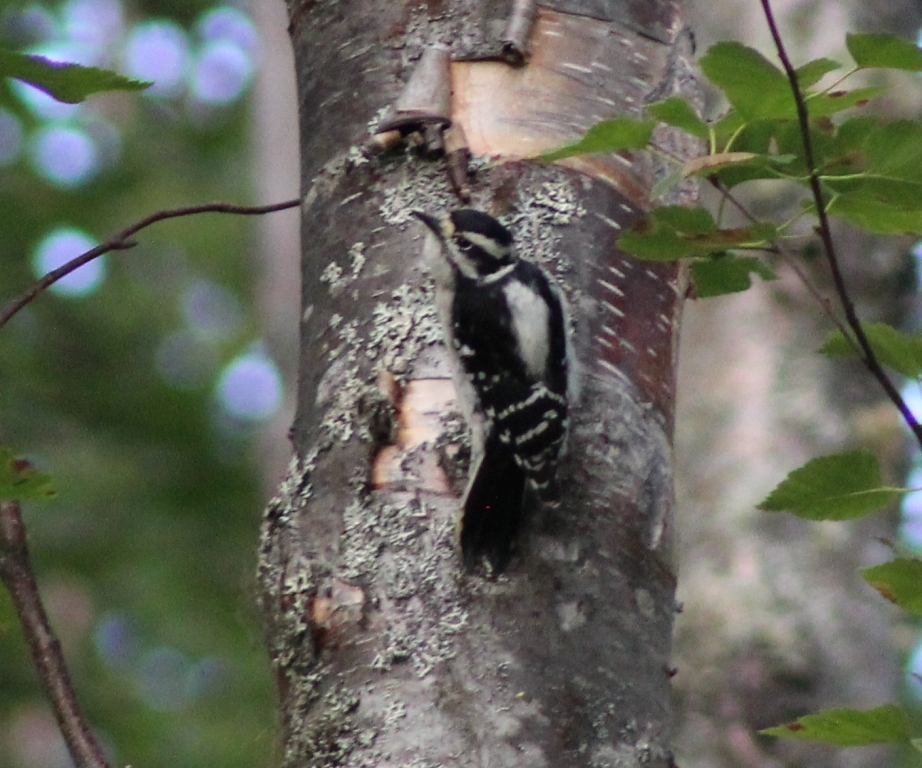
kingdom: Animalia
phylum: Chordata
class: Aves
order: Piciformes
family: Picidae
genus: Dryobates
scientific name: Dryobates pubescens
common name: Downy woodpecker
